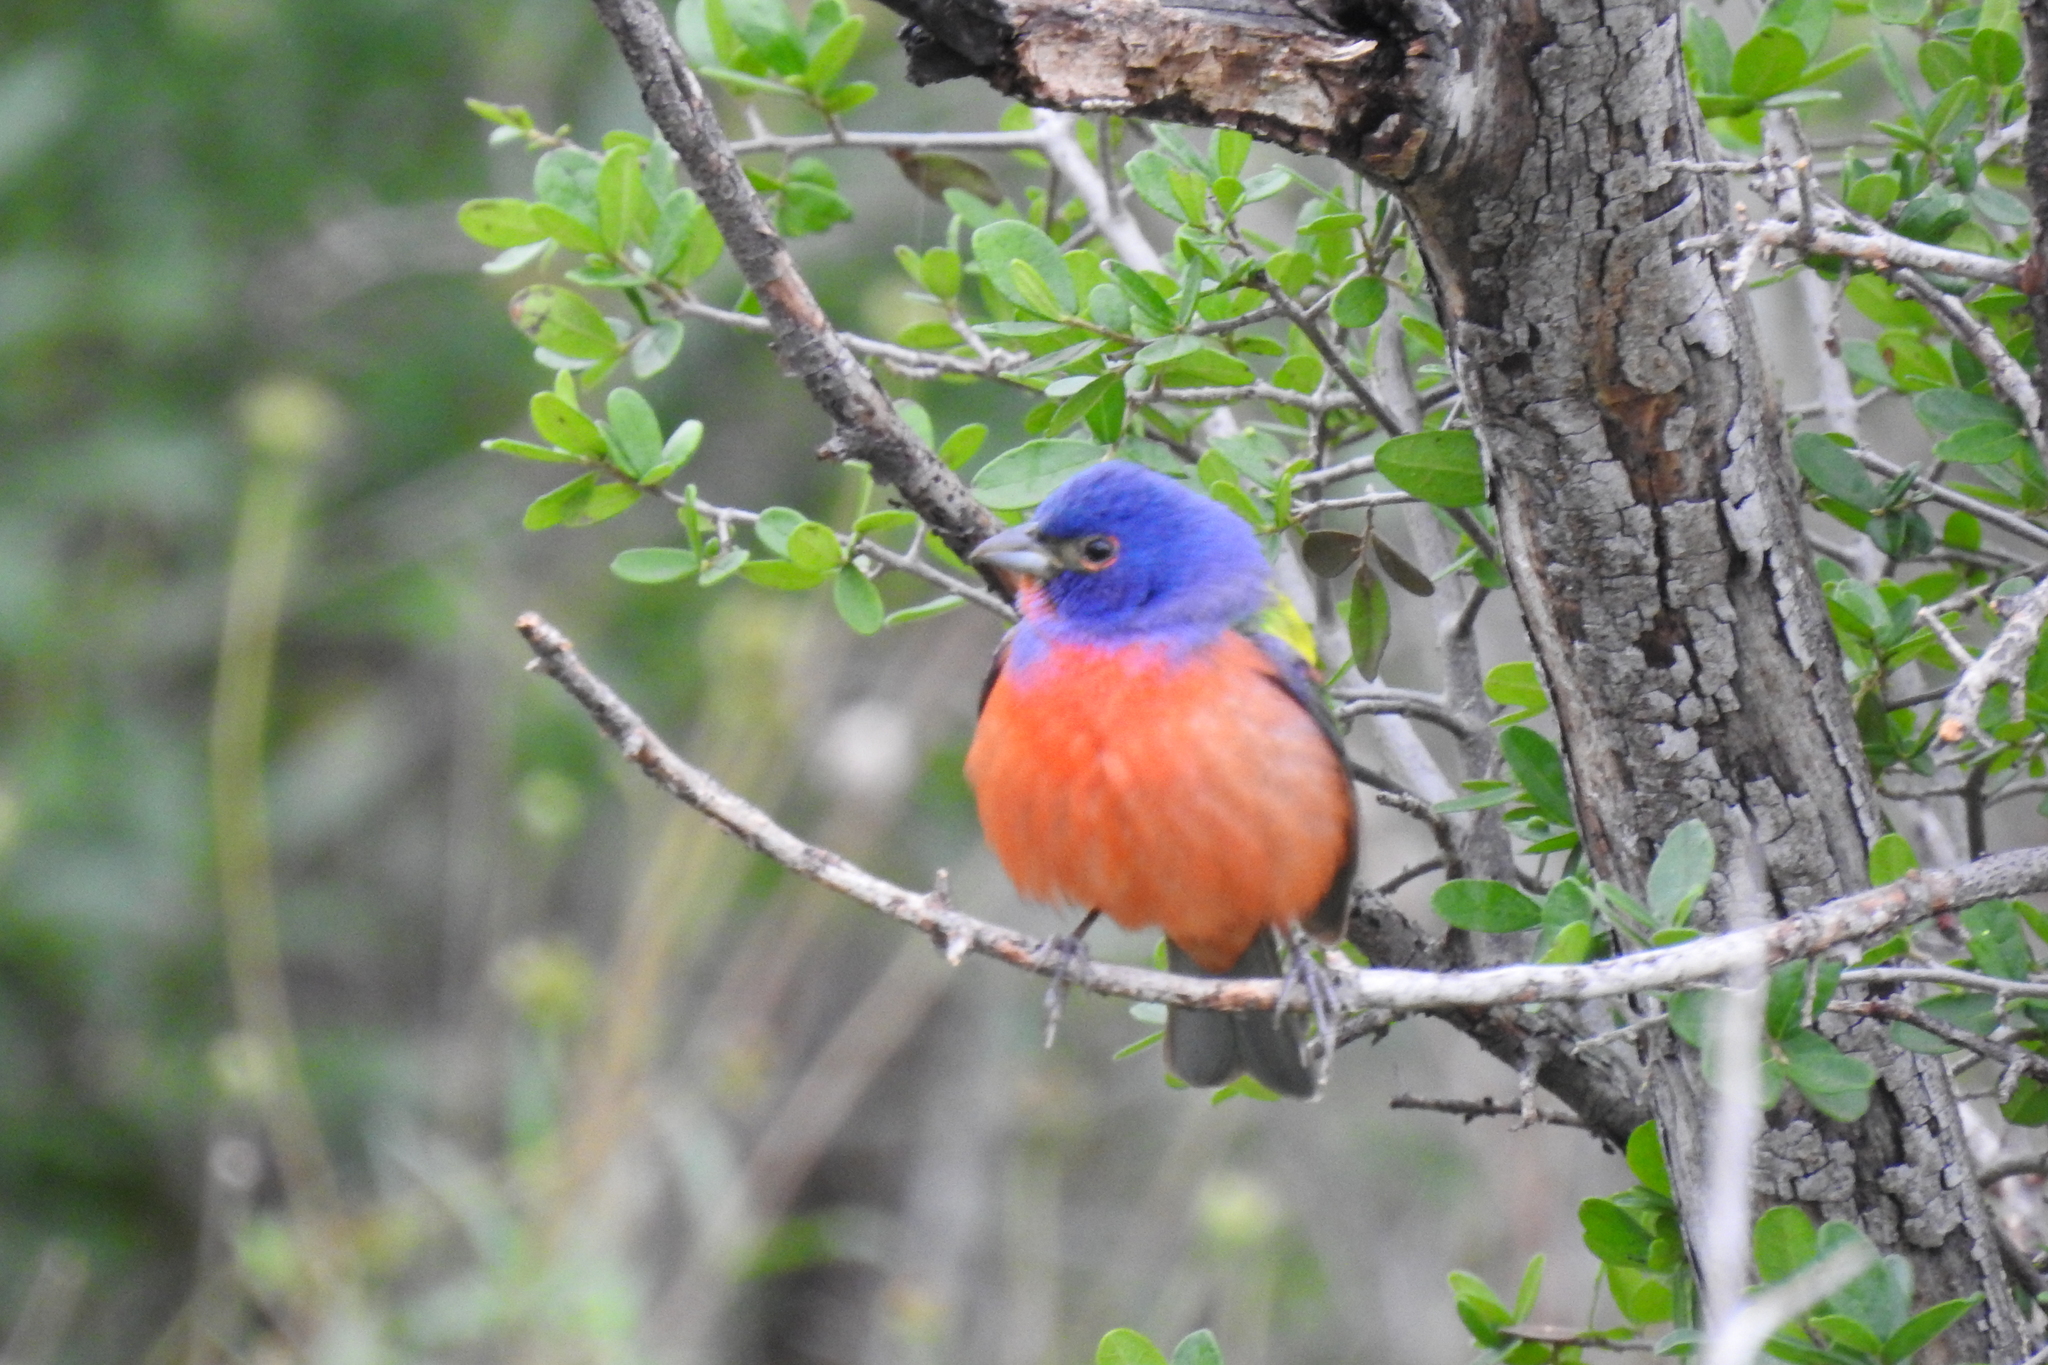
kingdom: Animalia
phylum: Chordata
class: Aves
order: Passeriformes
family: Cardinalidae
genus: Passerina
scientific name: Passerina ciris
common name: Painted bunting
